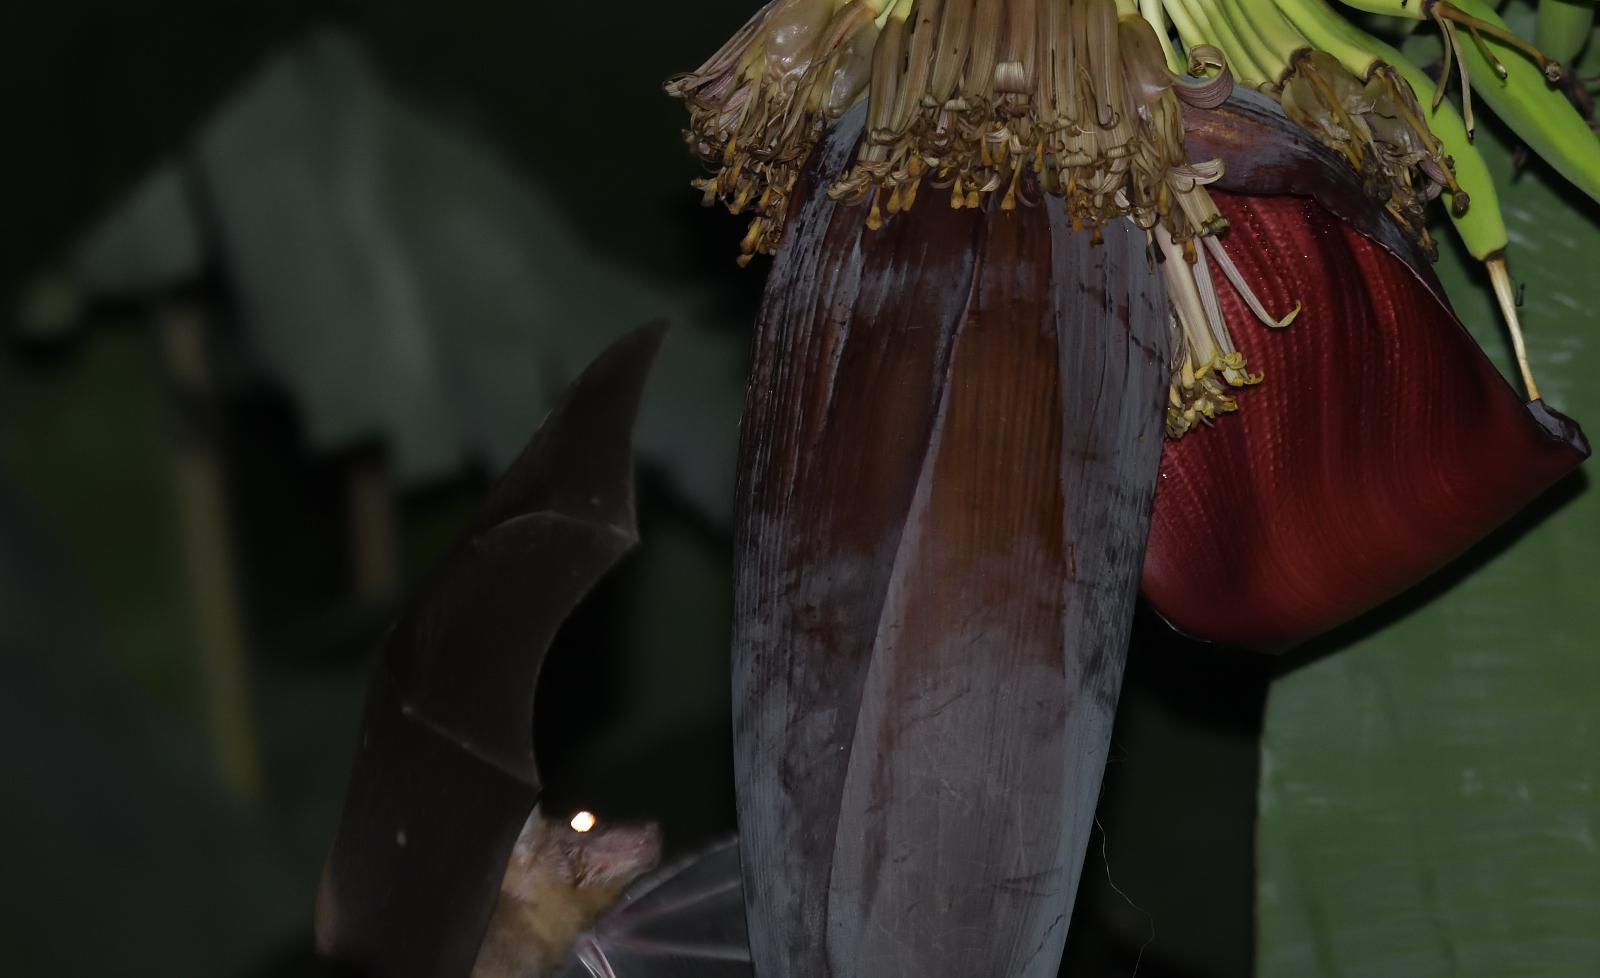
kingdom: Animalia
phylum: Chordata
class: Mammalia
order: Chiroptera
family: Pteropodidae
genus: Cynopterus
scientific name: Cynopterus sphinx
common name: Greater short-nosed fruit bat
